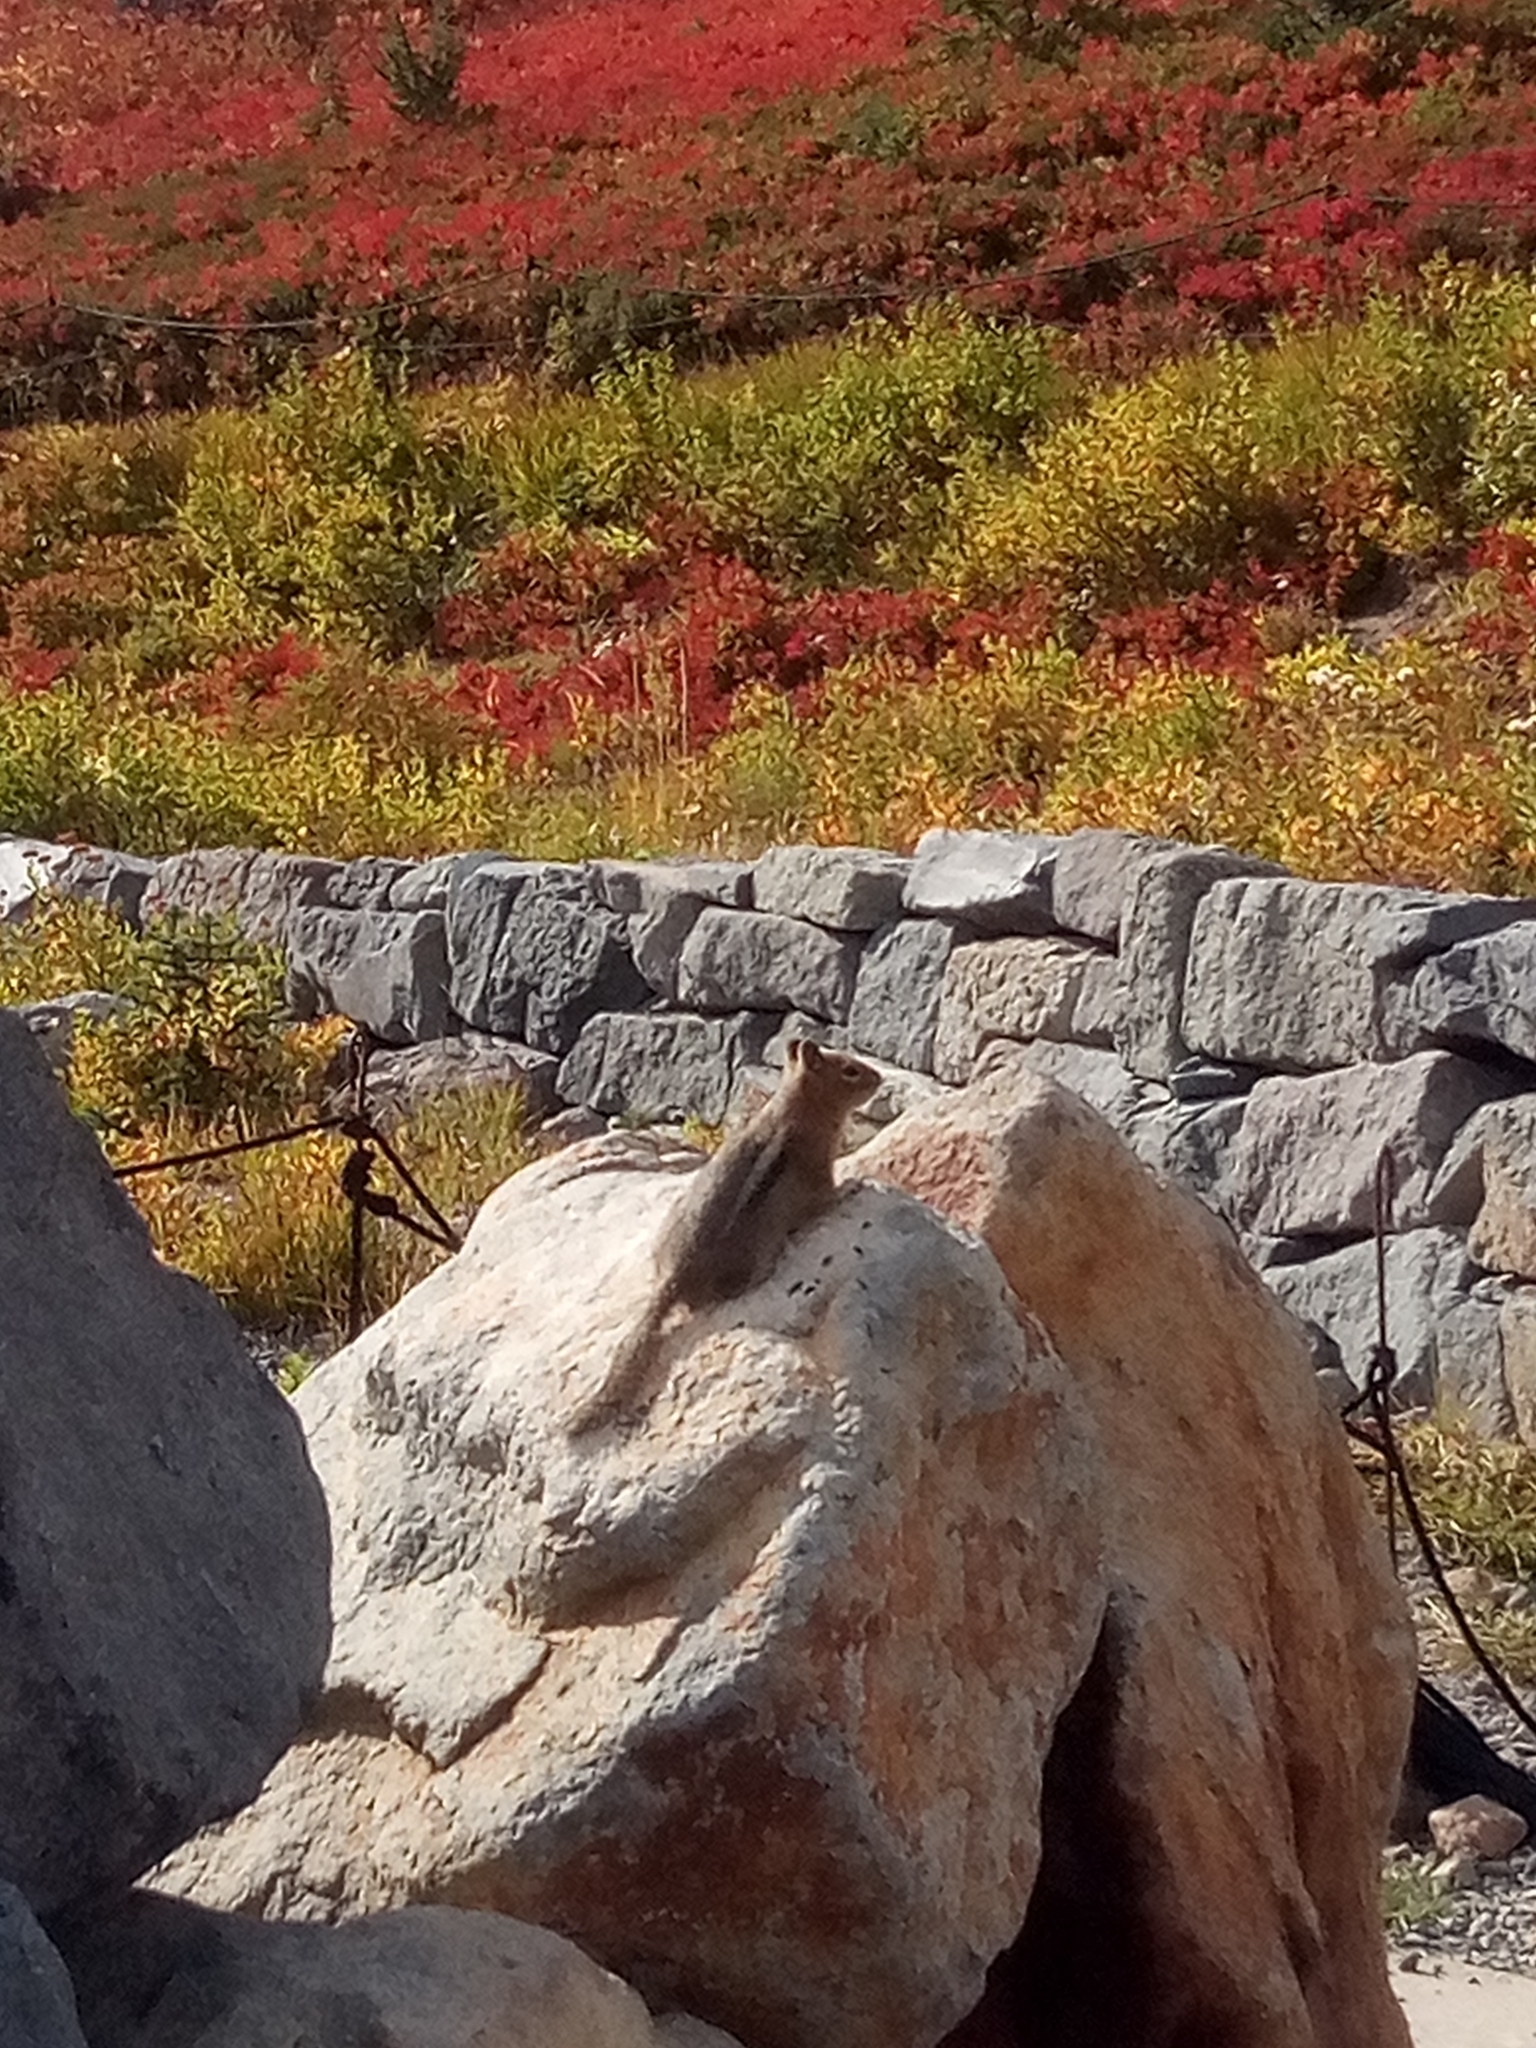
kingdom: Animalia
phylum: Chordata
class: Mammalia
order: Rodentia
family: Sciuridae
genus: Callospermophilus
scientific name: Callospermophilus saturatus
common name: Cascade golden-mantled ground squirrel
